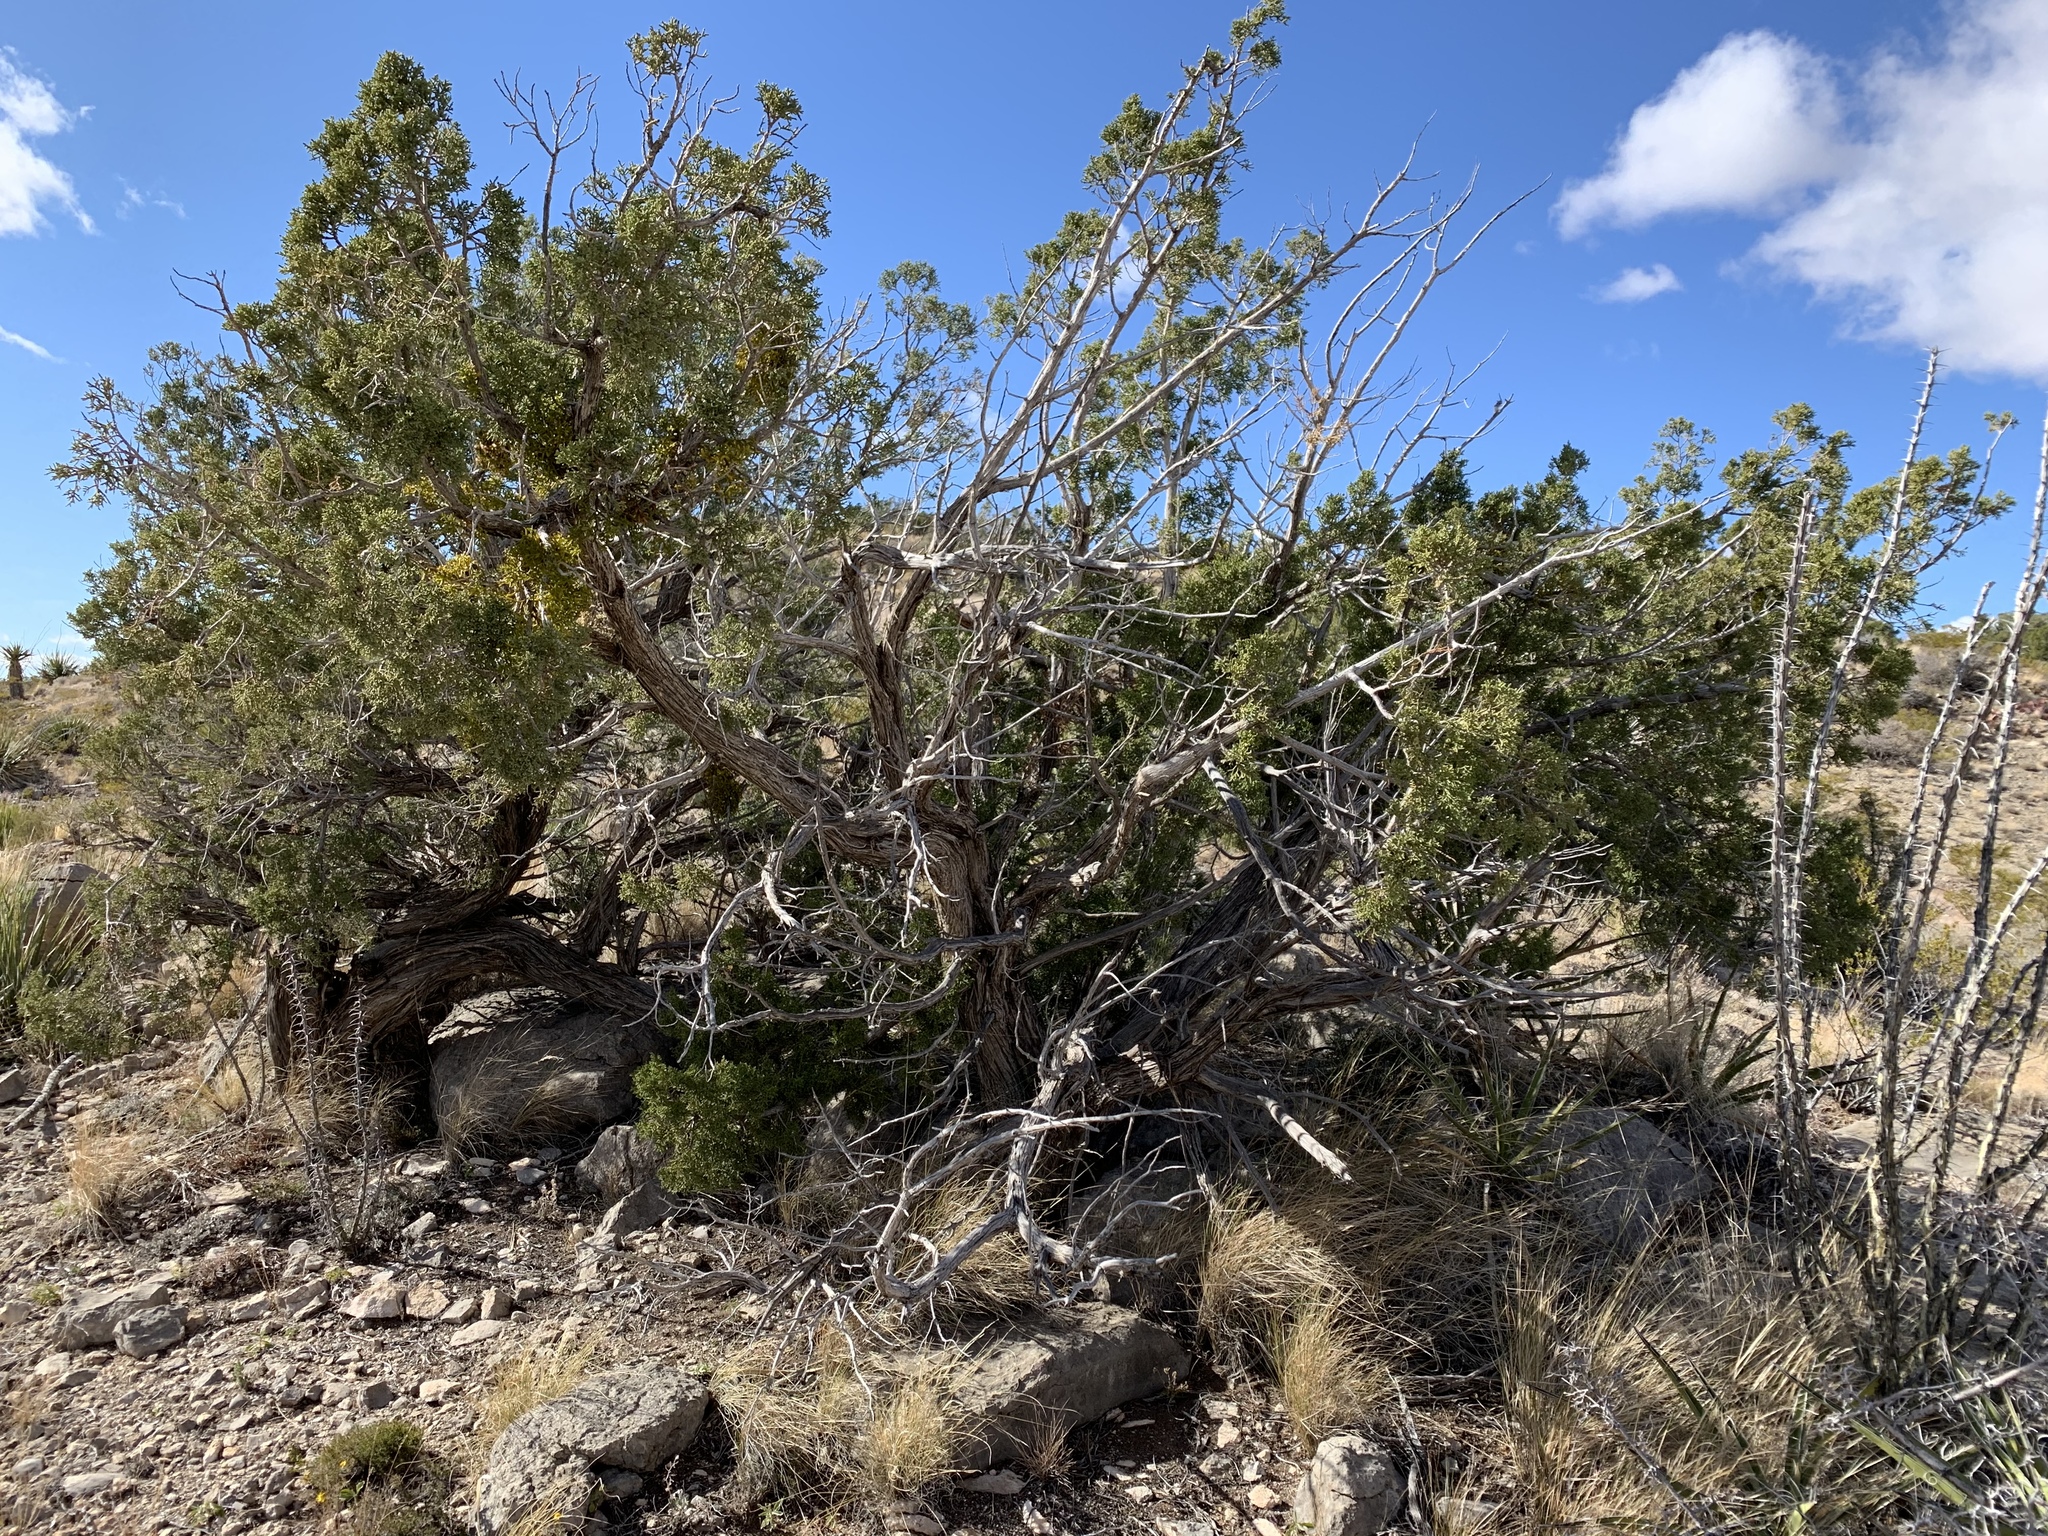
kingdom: Plantae
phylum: Tracheophyta
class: Pinopsida
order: Pinales
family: Cupressaceae
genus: Juniperus
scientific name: Juniperus monosperma
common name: One-seed juniper
